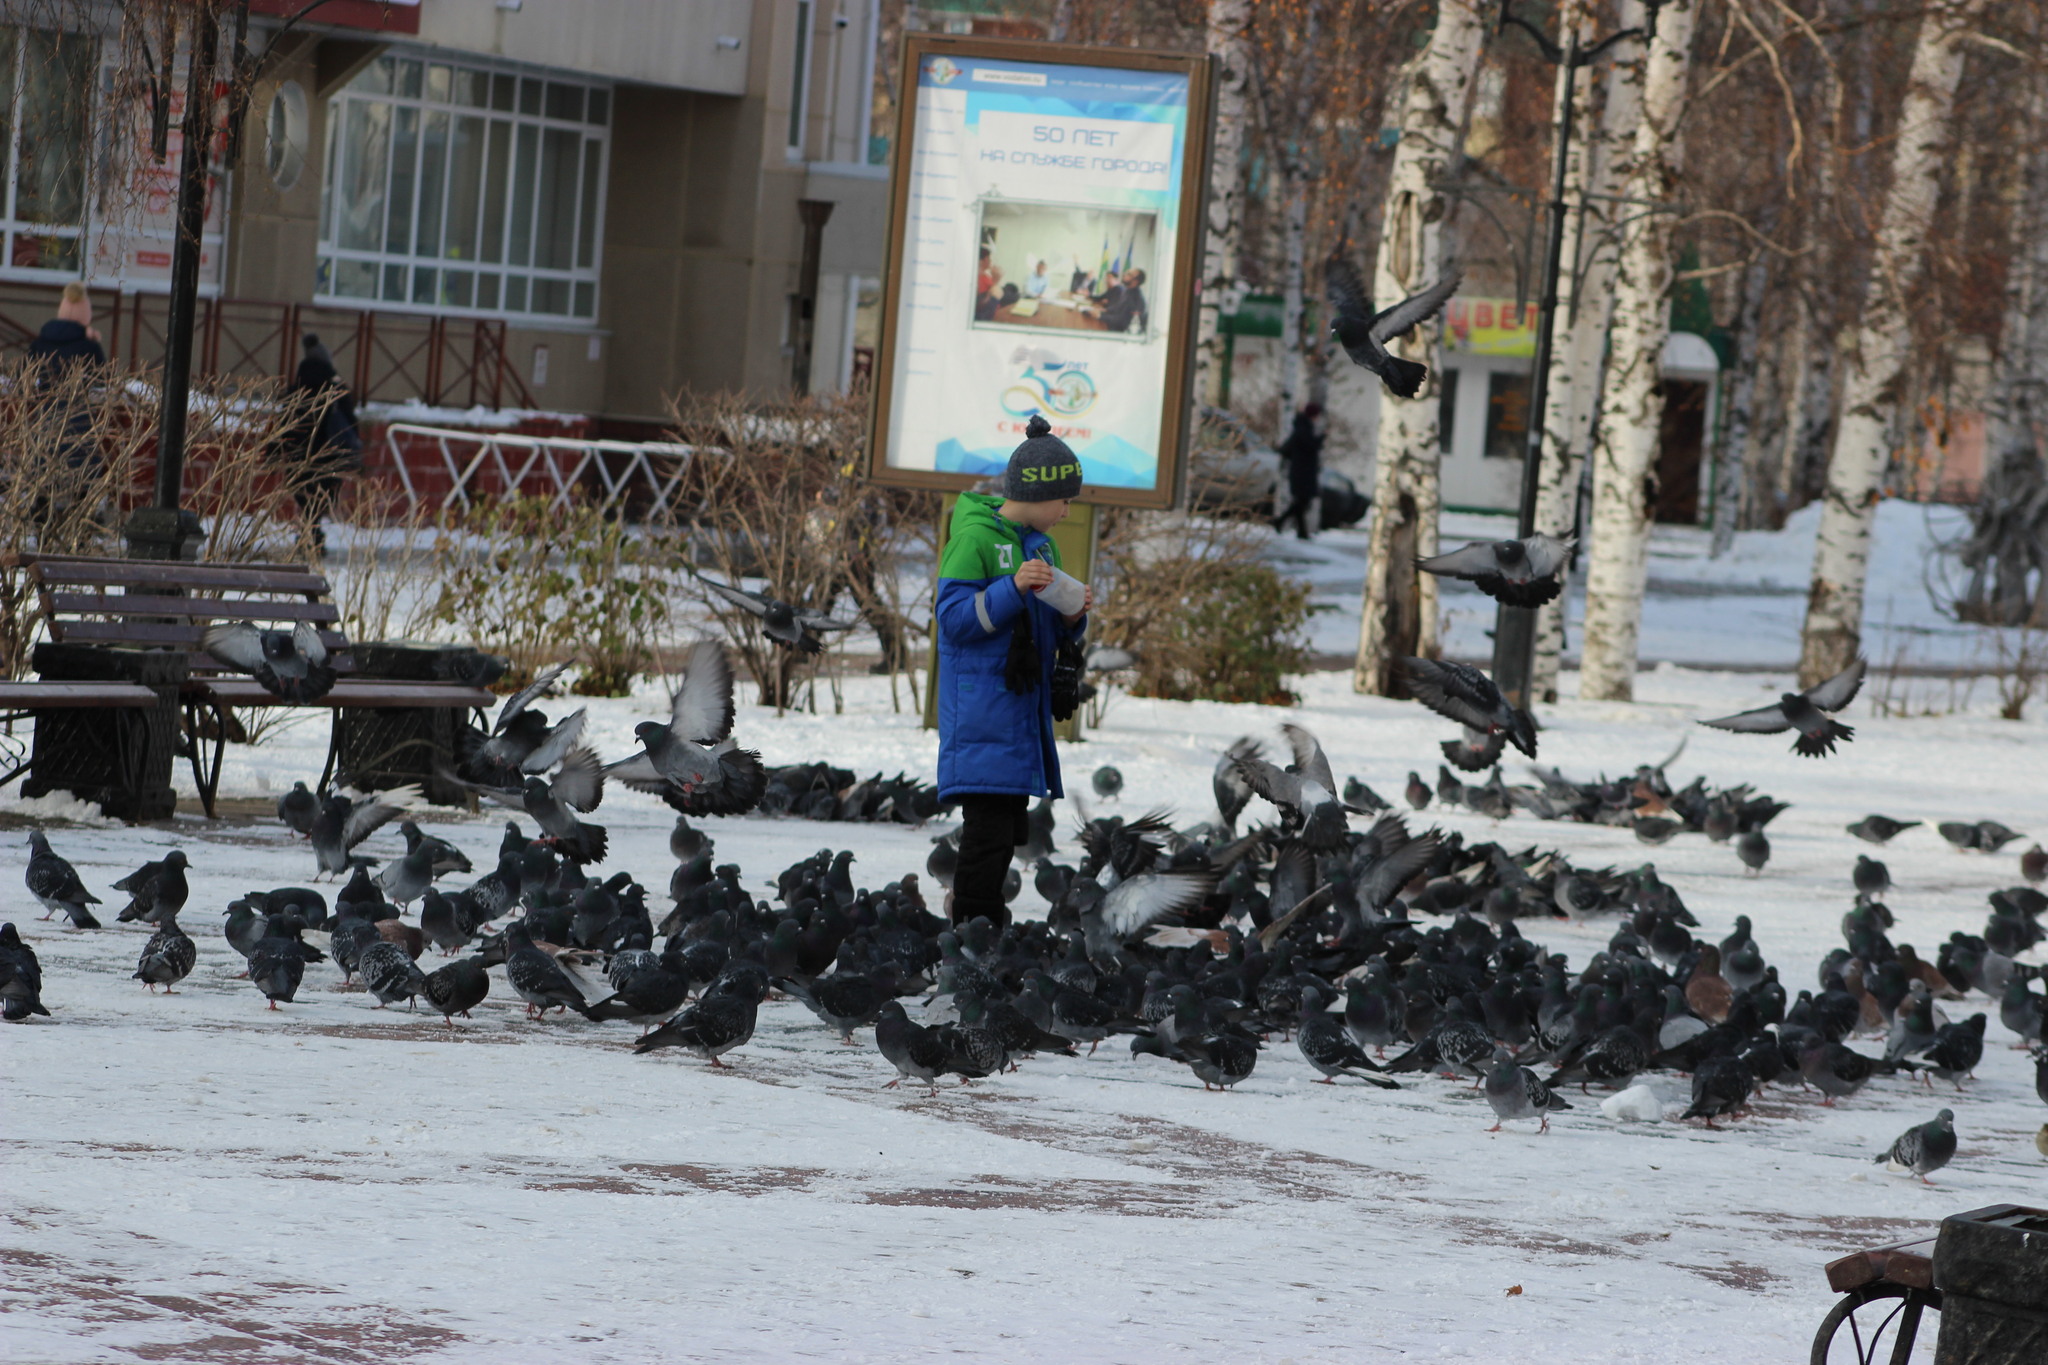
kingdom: Animalia
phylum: Chordata
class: Aves
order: Columbiformes
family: Columbidae
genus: Columba
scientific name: Columba livia
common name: Rock pigeon
